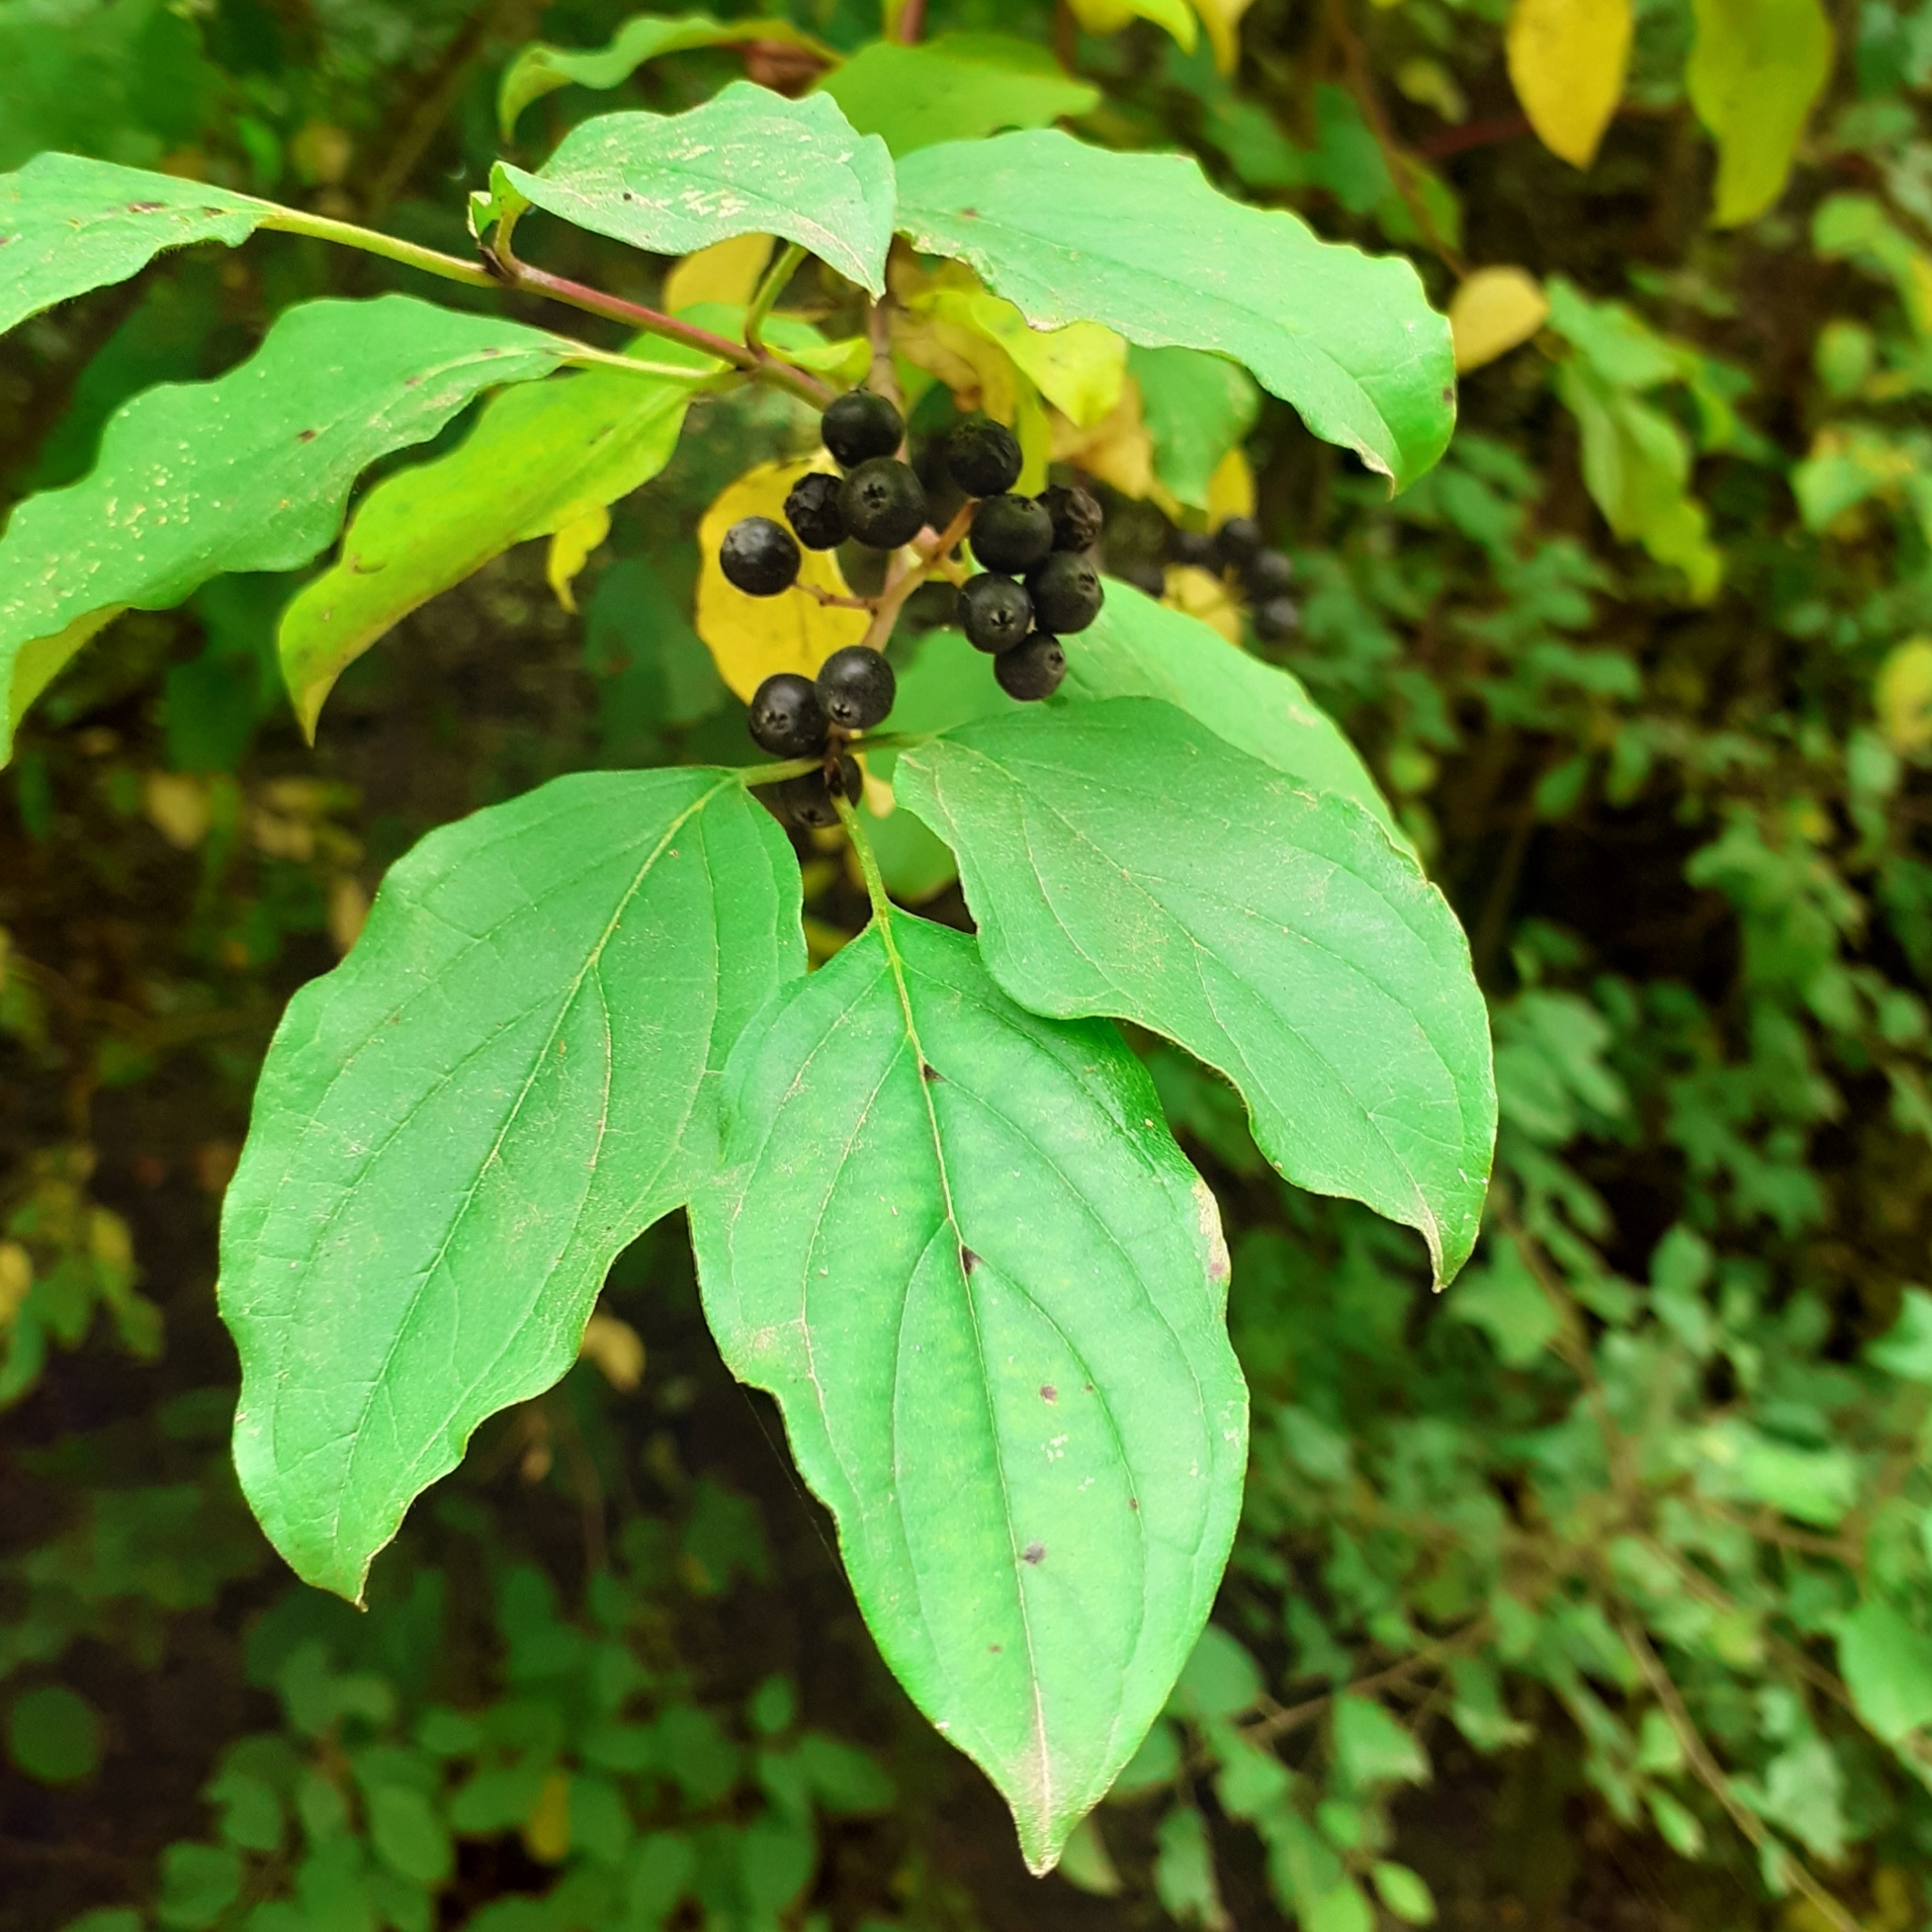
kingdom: Plantae
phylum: Tracheophyta
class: Magnoliopsida
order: Cornales
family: Cornaceae
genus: Cornus
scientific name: Cornus sanguinea
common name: Dogwood
